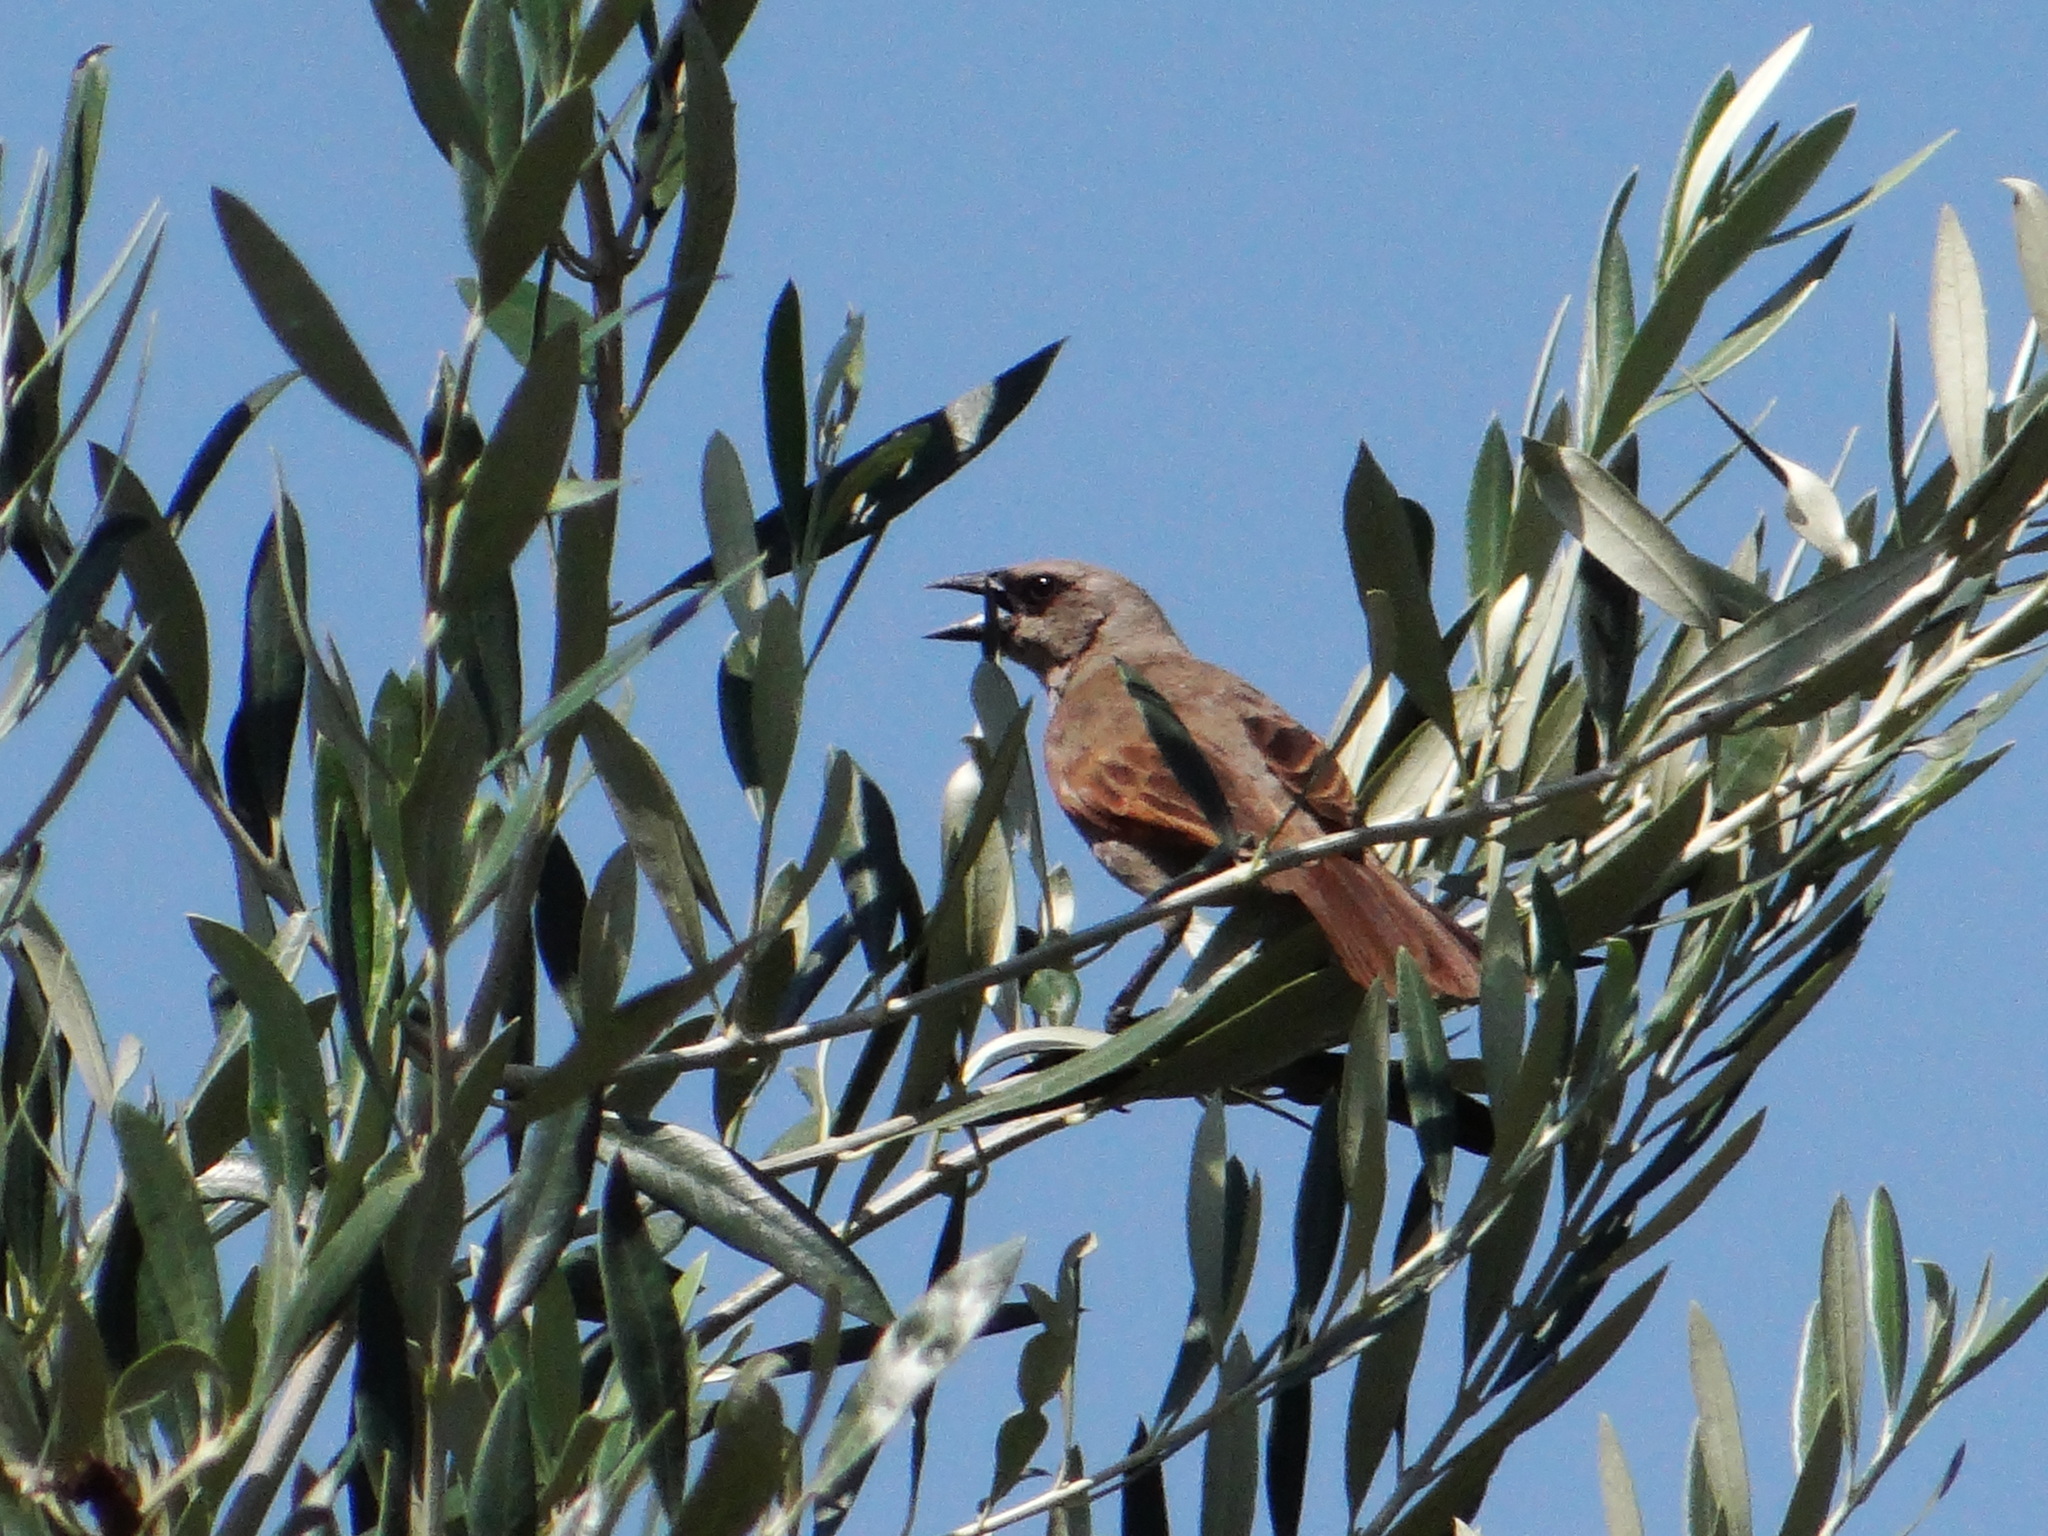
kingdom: Animalia
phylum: Chordata
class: Aves
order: Passeriformes
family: Icteridae
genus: Agelaioides
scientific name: Agelaioides badius
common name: Baywing
